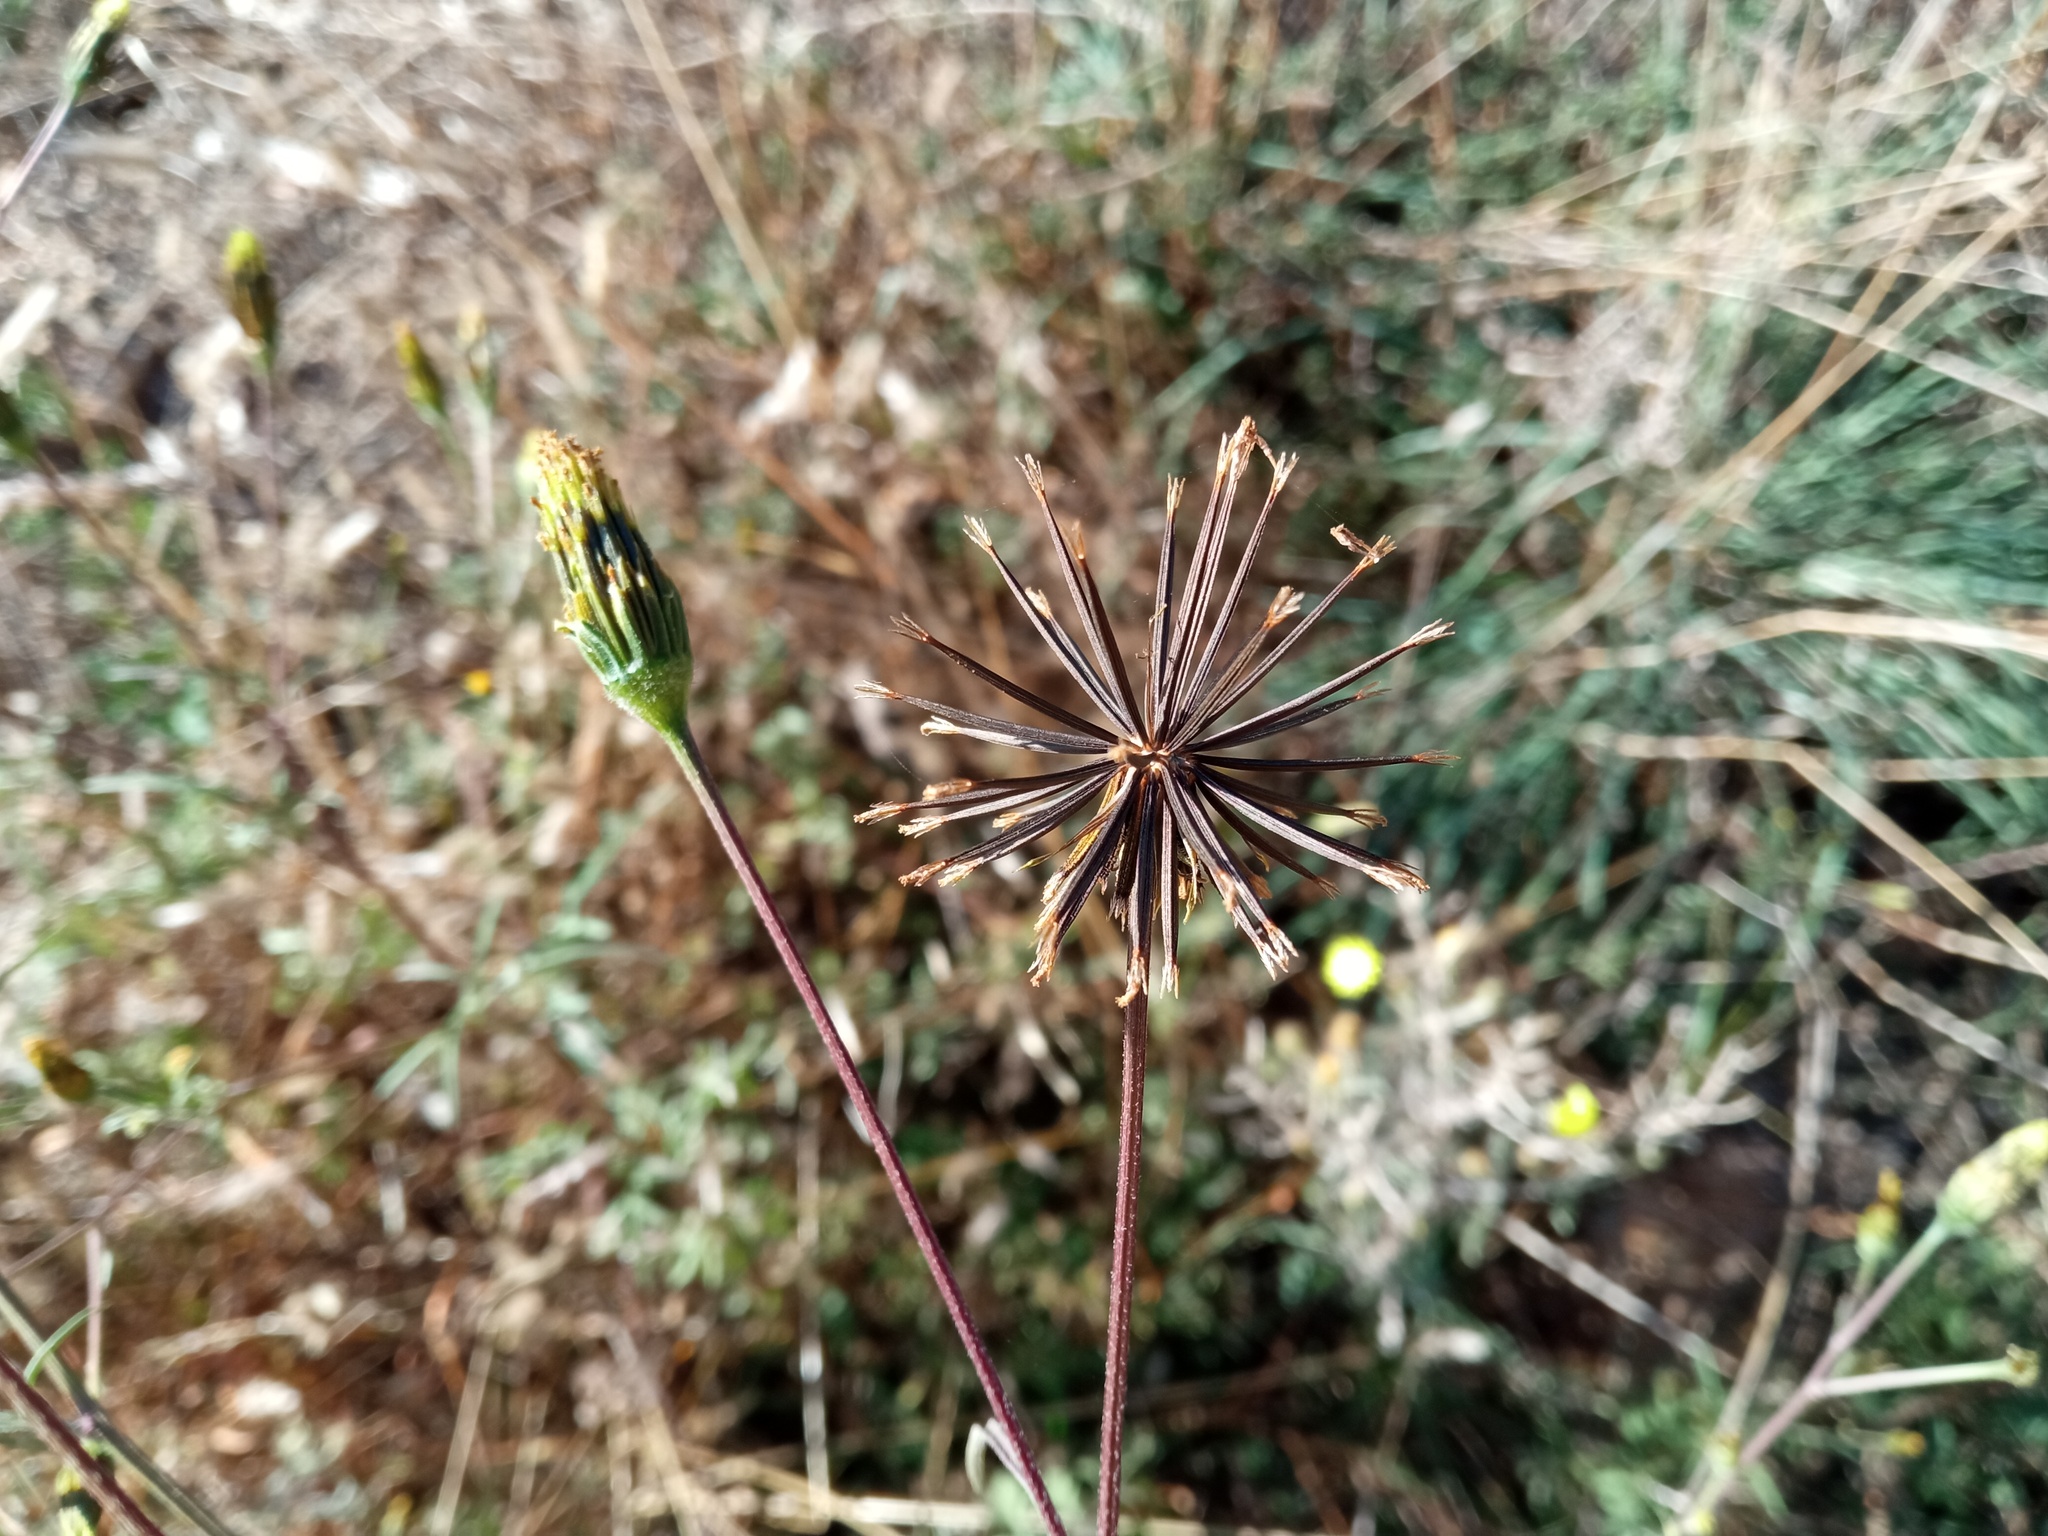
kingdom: Plantae
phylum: Tracheophyta
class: Magnoliopsida
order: Asterales
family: Asteraceae
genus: Bidens
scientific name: Bidens subalternans
